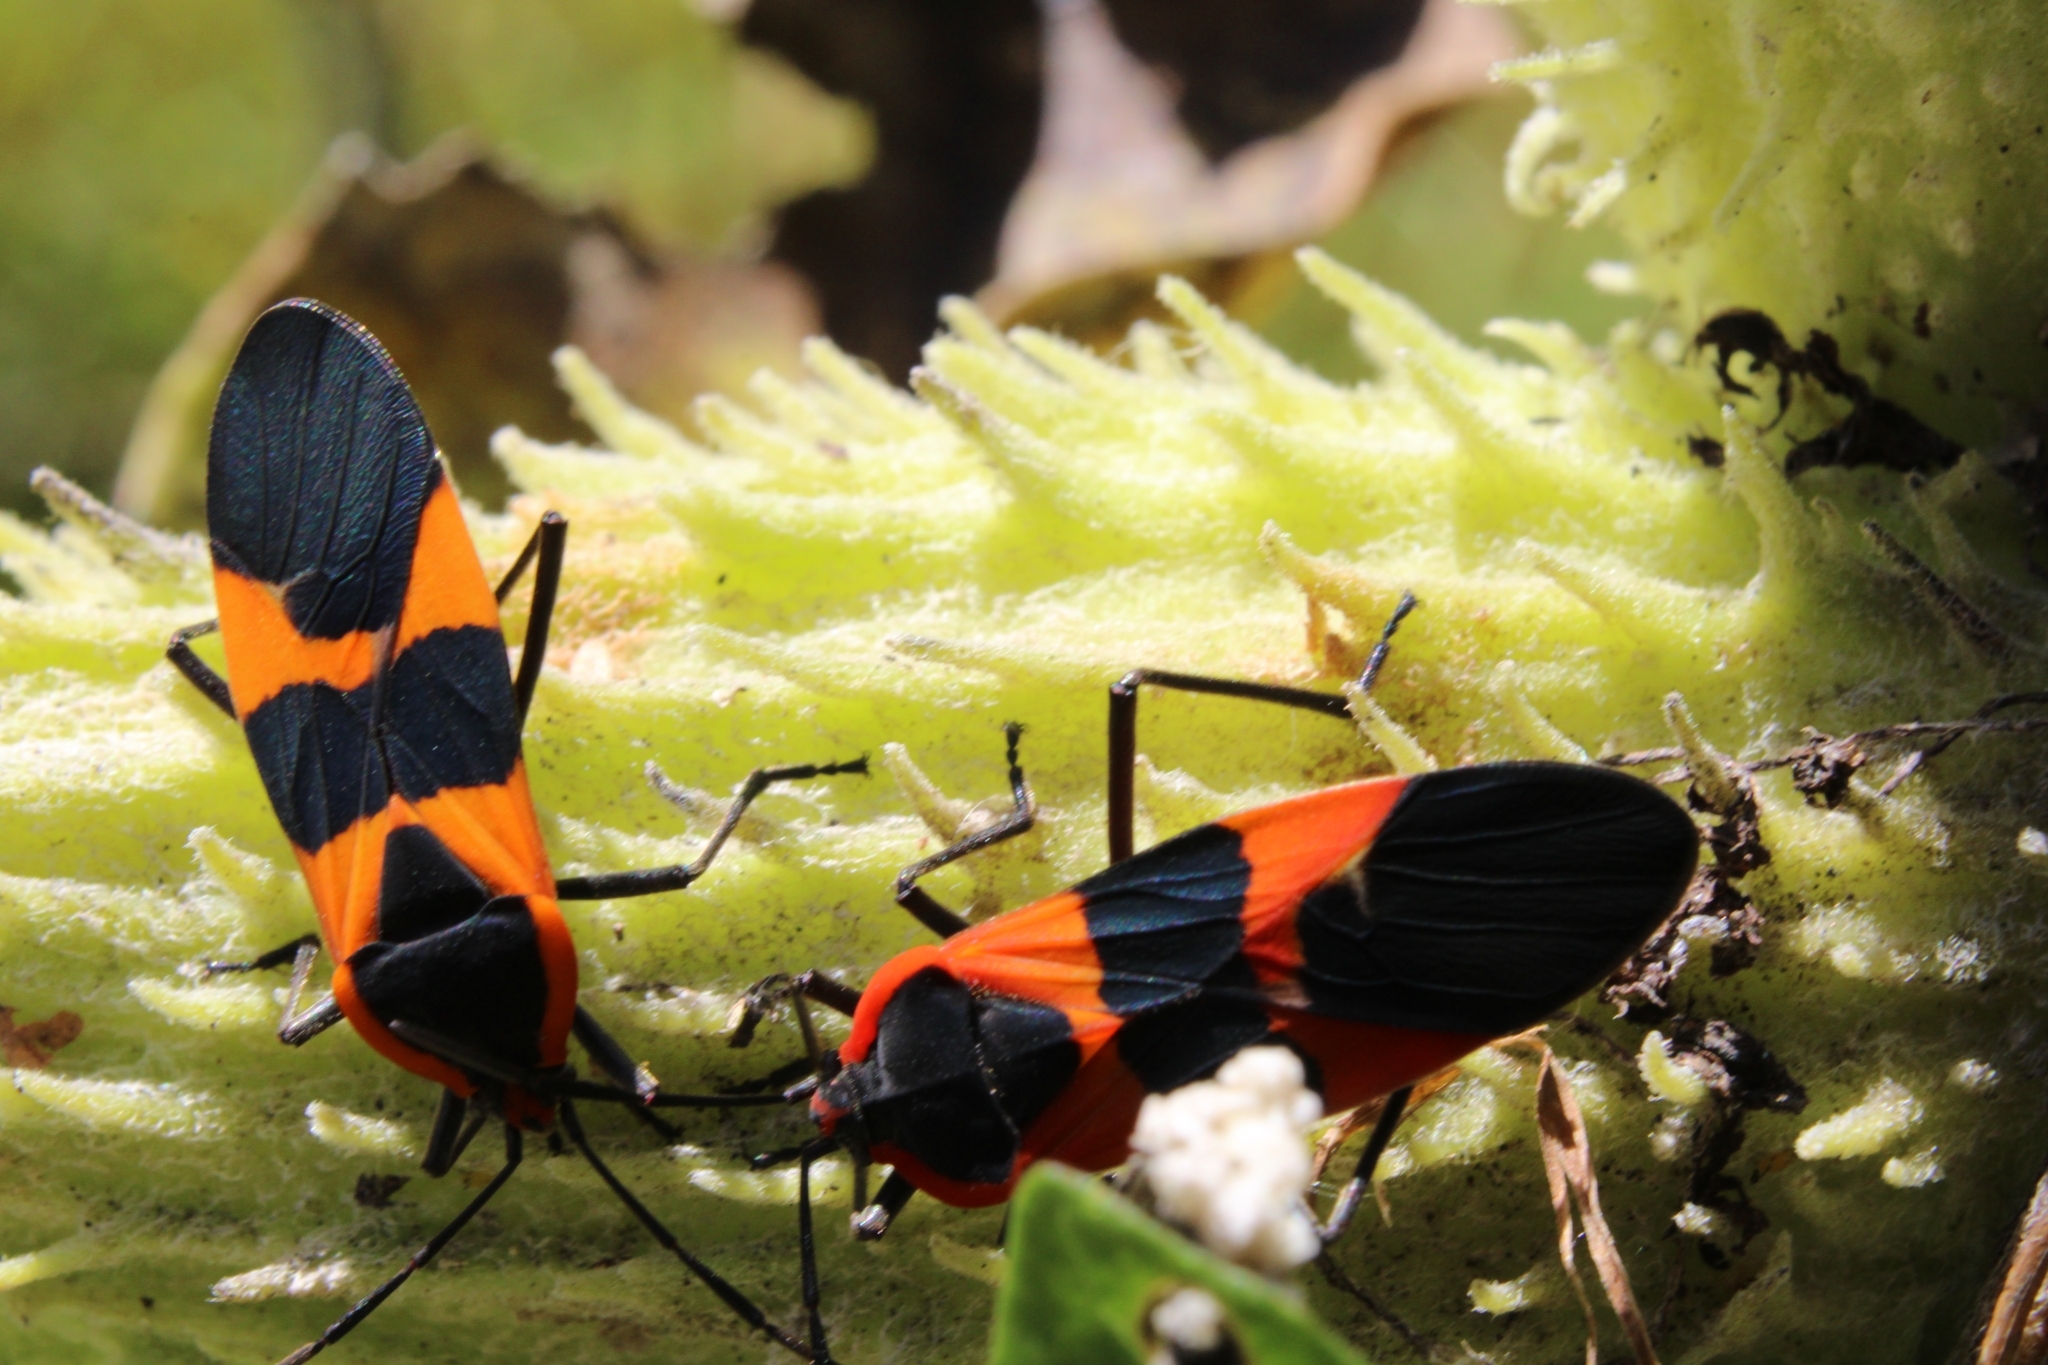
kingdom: Animalia
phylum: Arthropoda
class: Insecta
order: Hemiptera
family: Lygaeidae
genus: Oncopeltus
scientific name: Oncopeltus fasciatus
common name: Large milkweed bug
